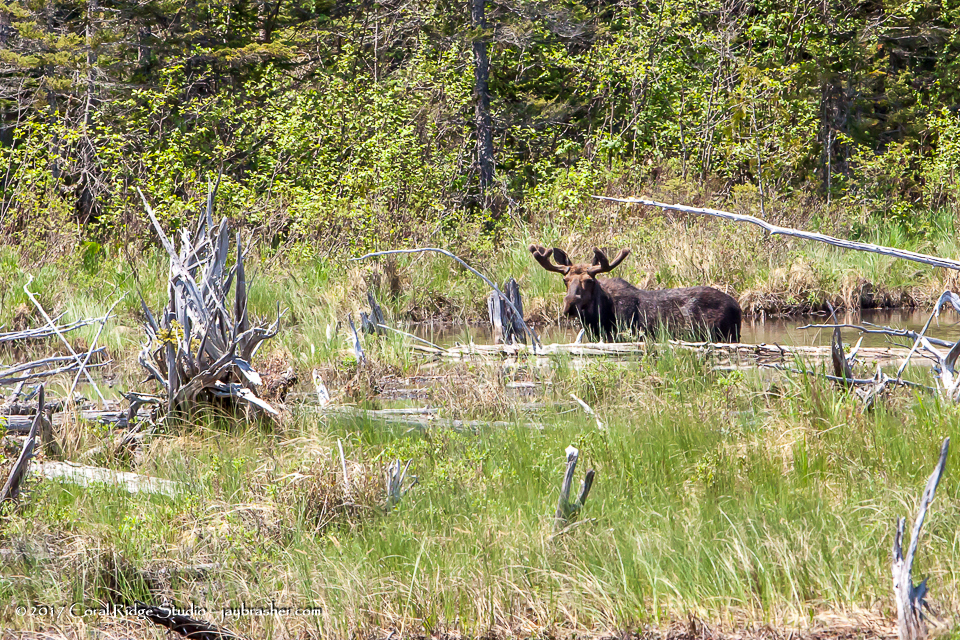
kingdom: Animalia
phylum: Chordata
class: Mammalia
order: Artiodactyla
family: Cervidae
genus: Alces
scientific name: Alces alces
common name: Moose
